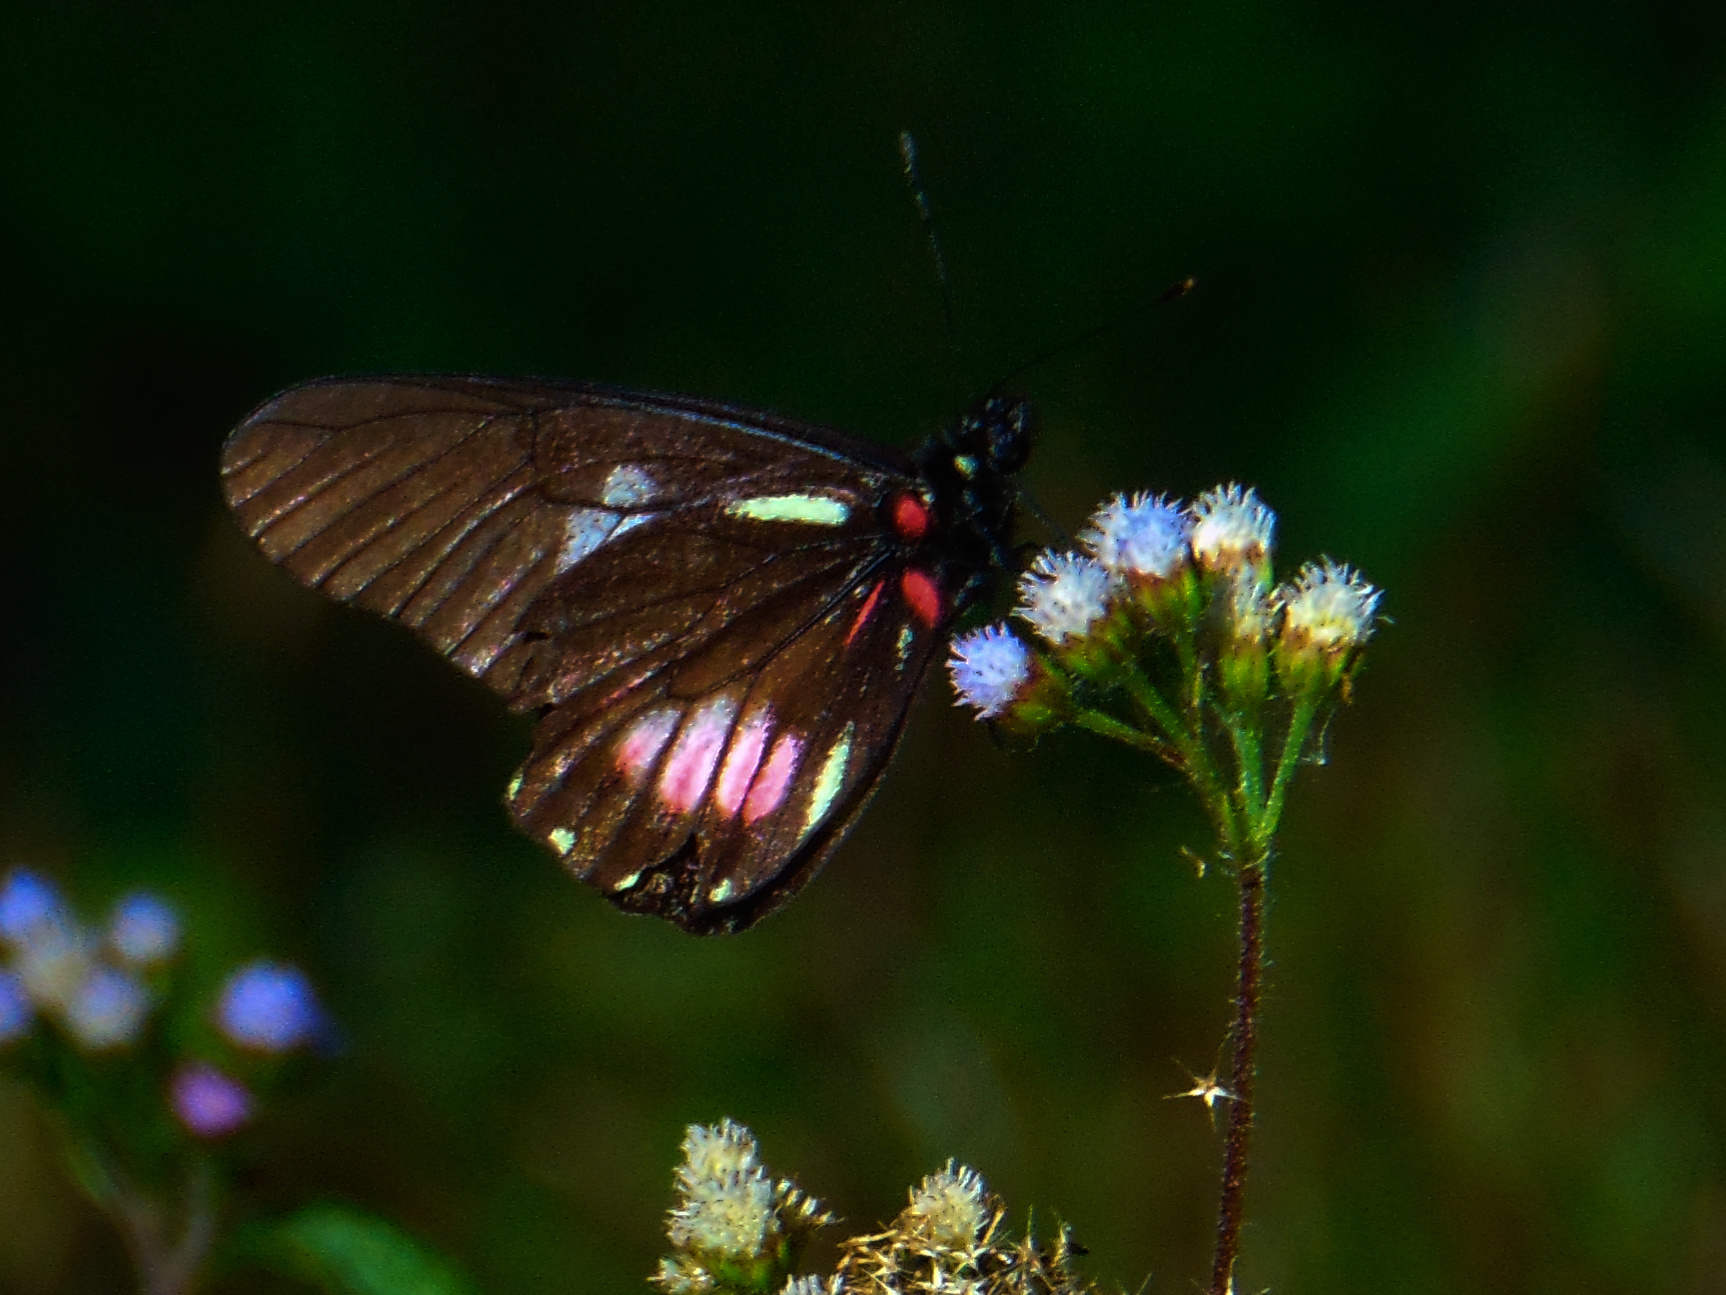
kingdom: Animalia
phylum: Arthropoda
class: Insecta
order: Lepidoptera
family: Pieridae
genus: Archonias
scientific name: Archonias brassolis
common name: Cattleheart white
